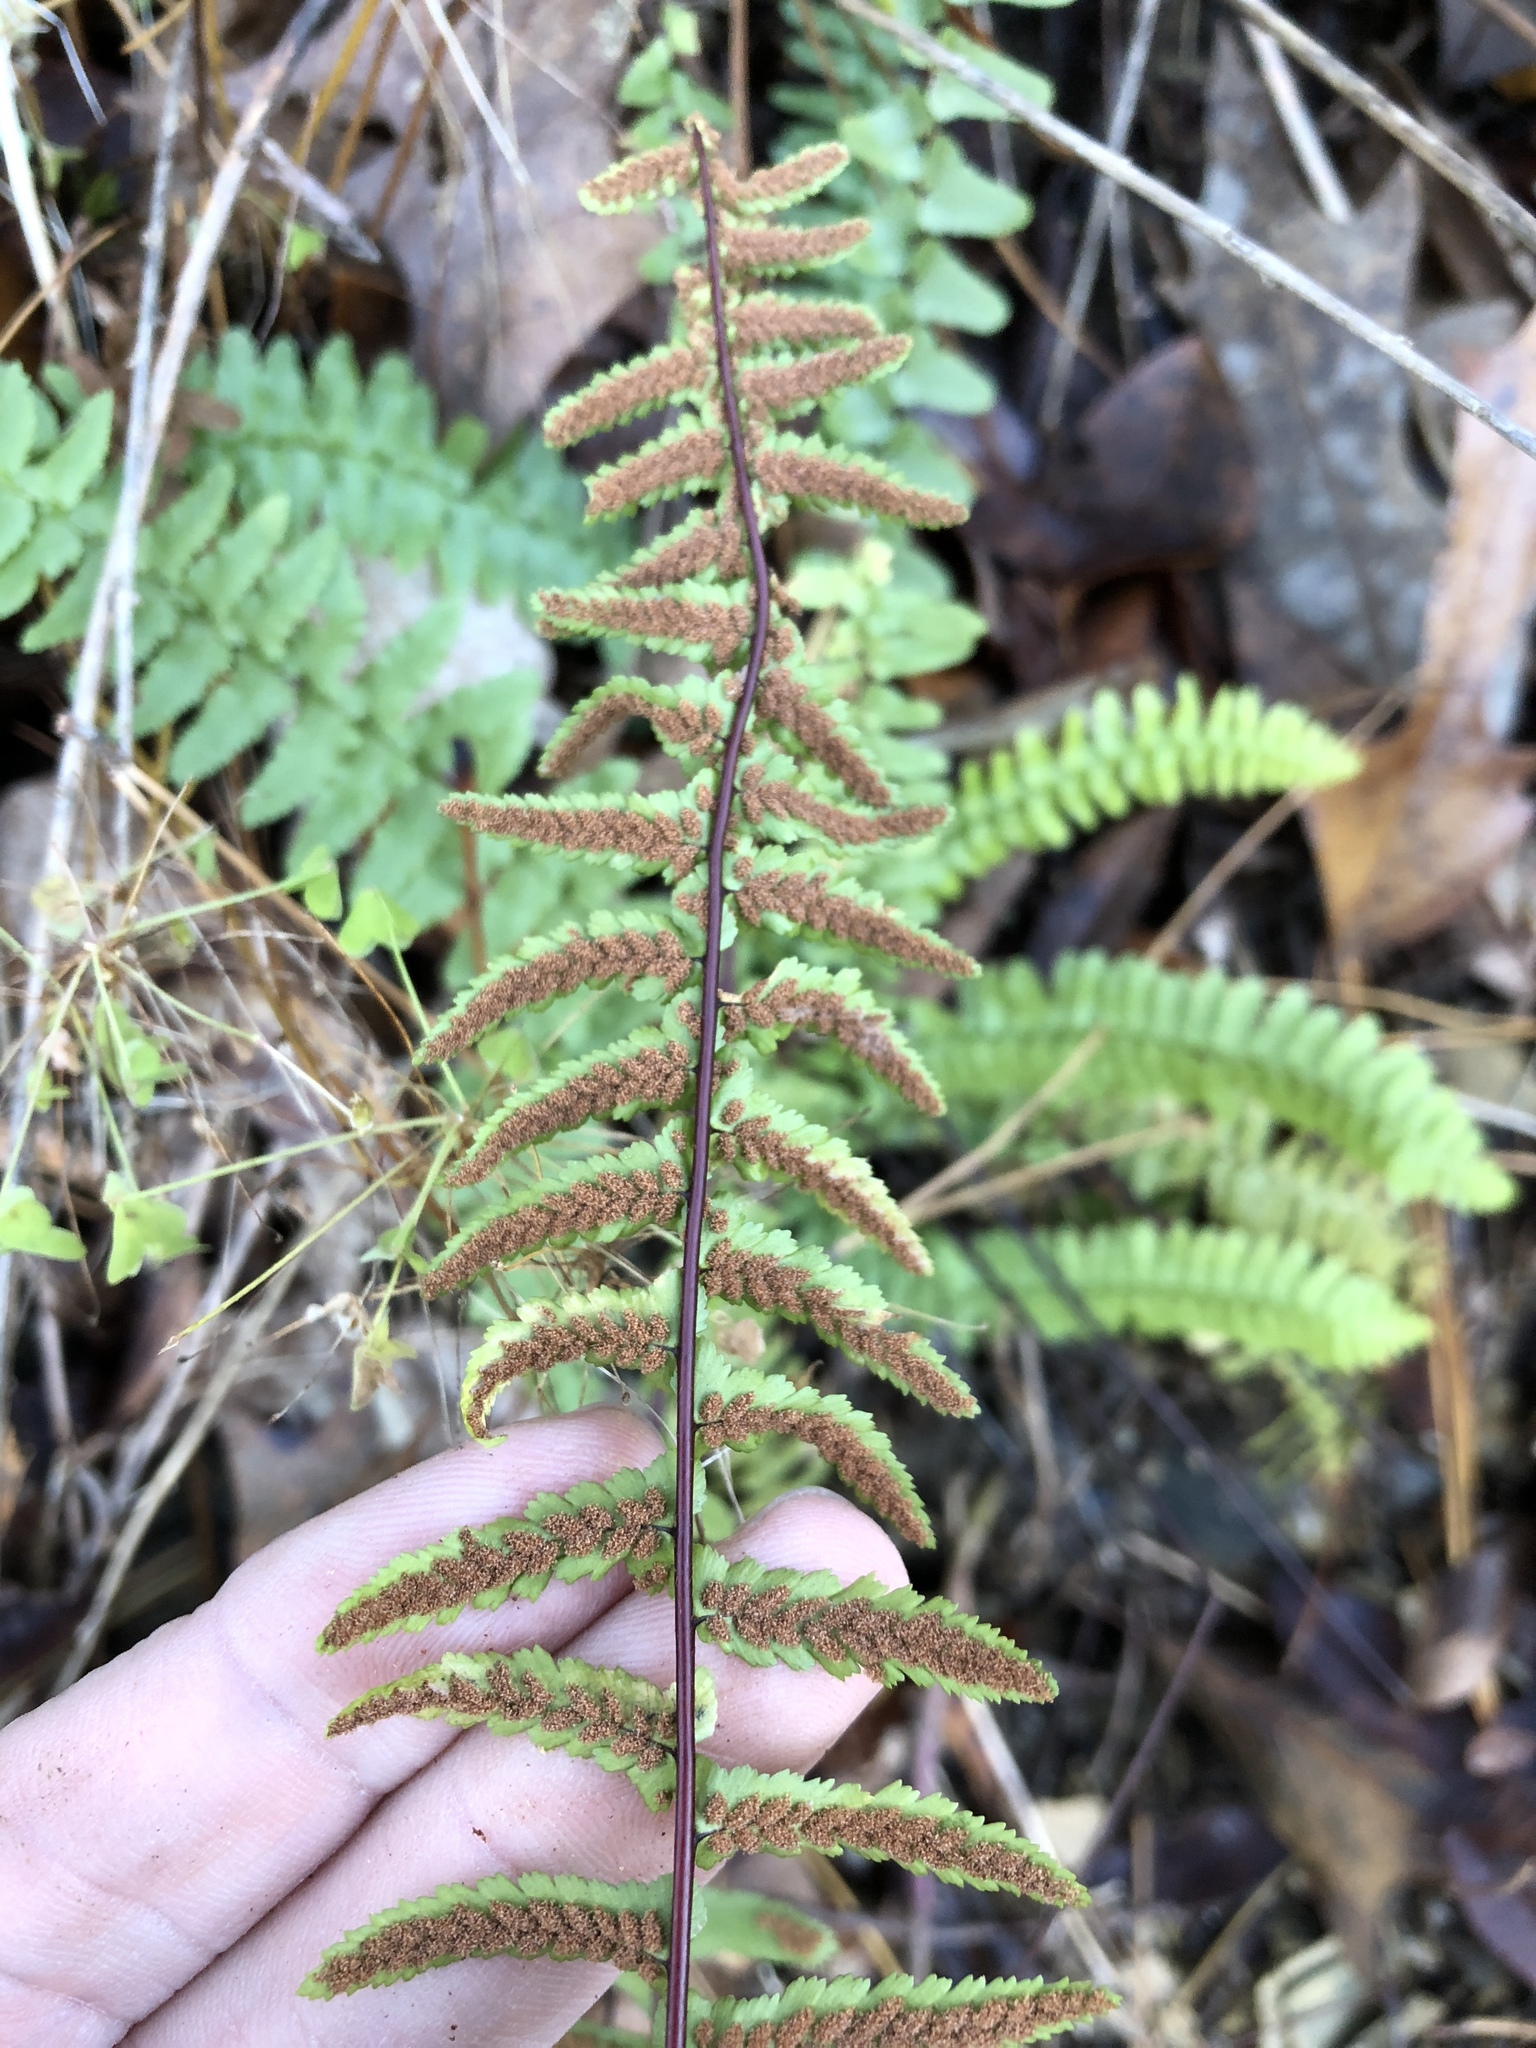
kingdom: Plantae
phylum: Tracheophyta
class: Polypodiopsida
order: Polypodiales
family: Aspleniaceae
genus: Asplenium
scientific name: Asplenium platyneuron
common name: Ebony spleenwort
